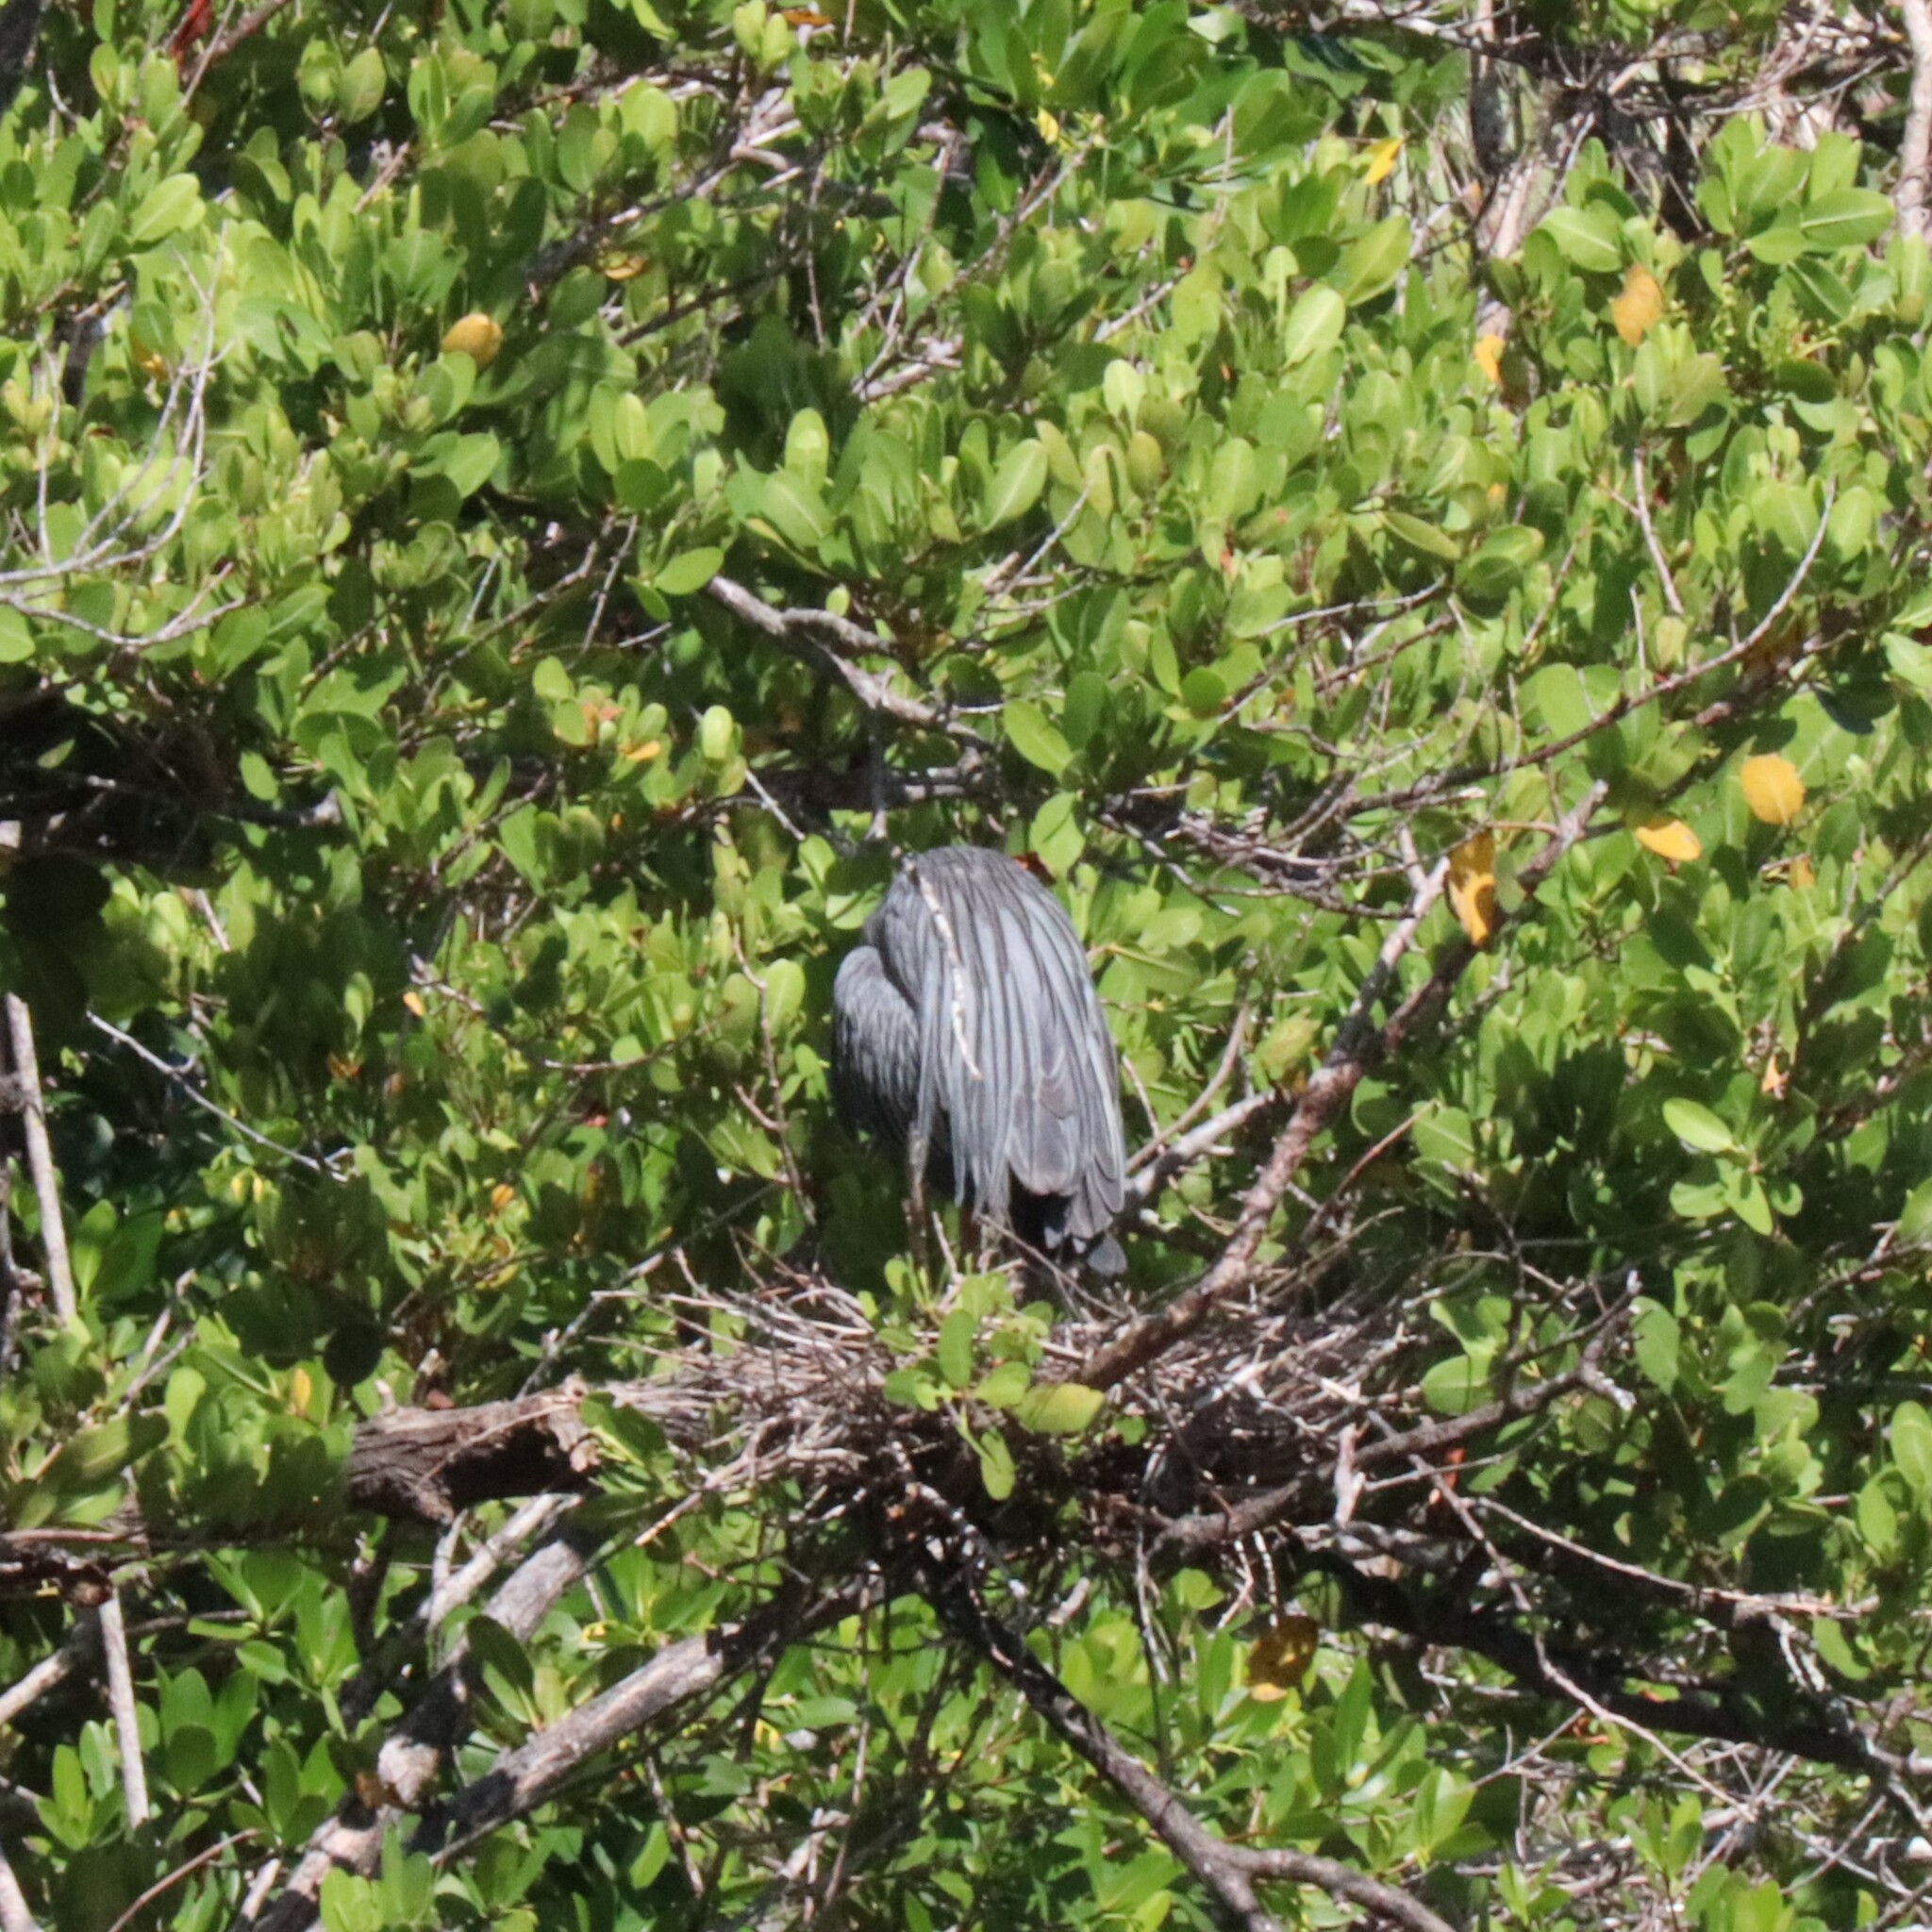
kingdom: Animalia
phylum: Chordata
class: Aves
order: Pelecaniformes
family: Ardeidae
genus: Nyctanassa
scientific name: Nyctanassa violacea
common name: Yellow-crowned night heron
